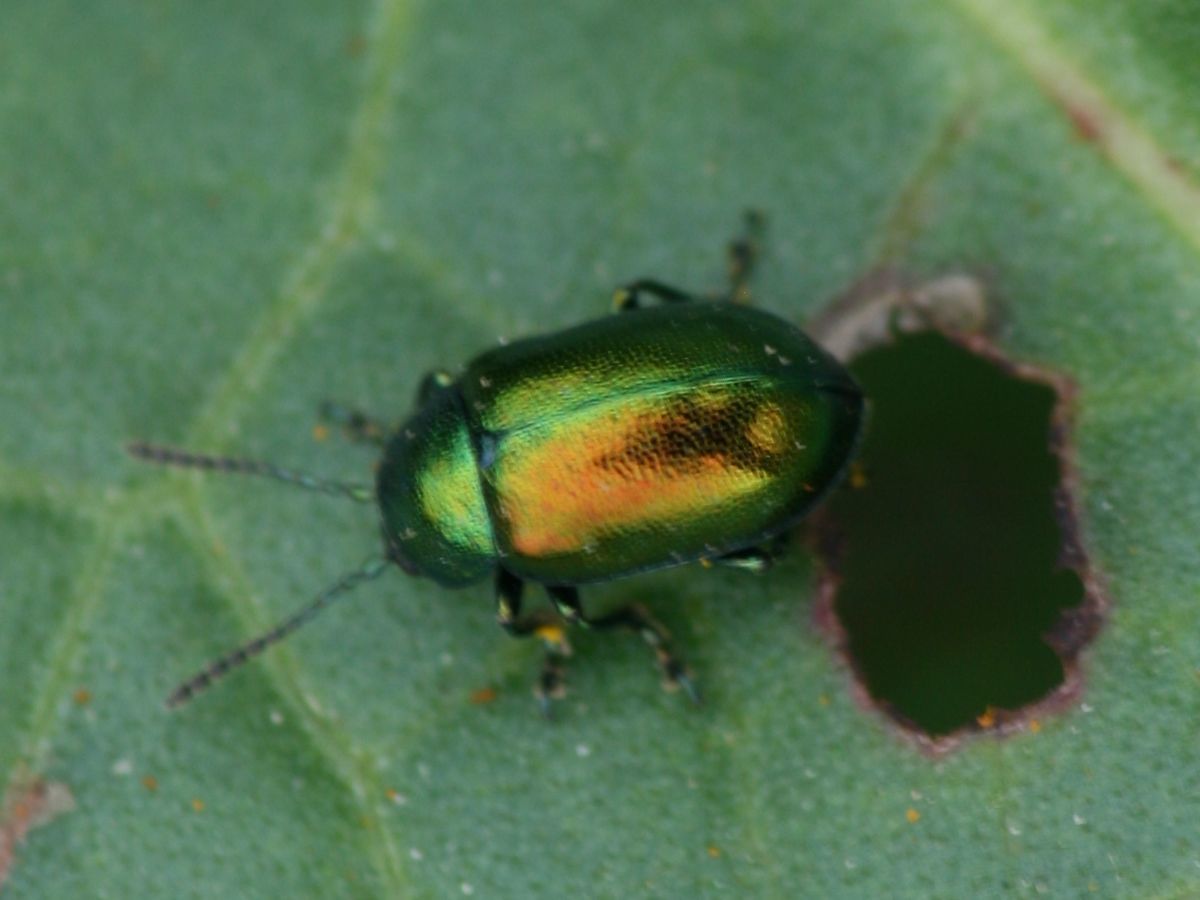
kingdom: Animalia
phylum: Arthropoda
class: Insecta
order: Coleoptera
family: Chrysomelidae
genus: Gastrophysa
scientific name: Gastrophysa viridula
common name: Green dock beetle
